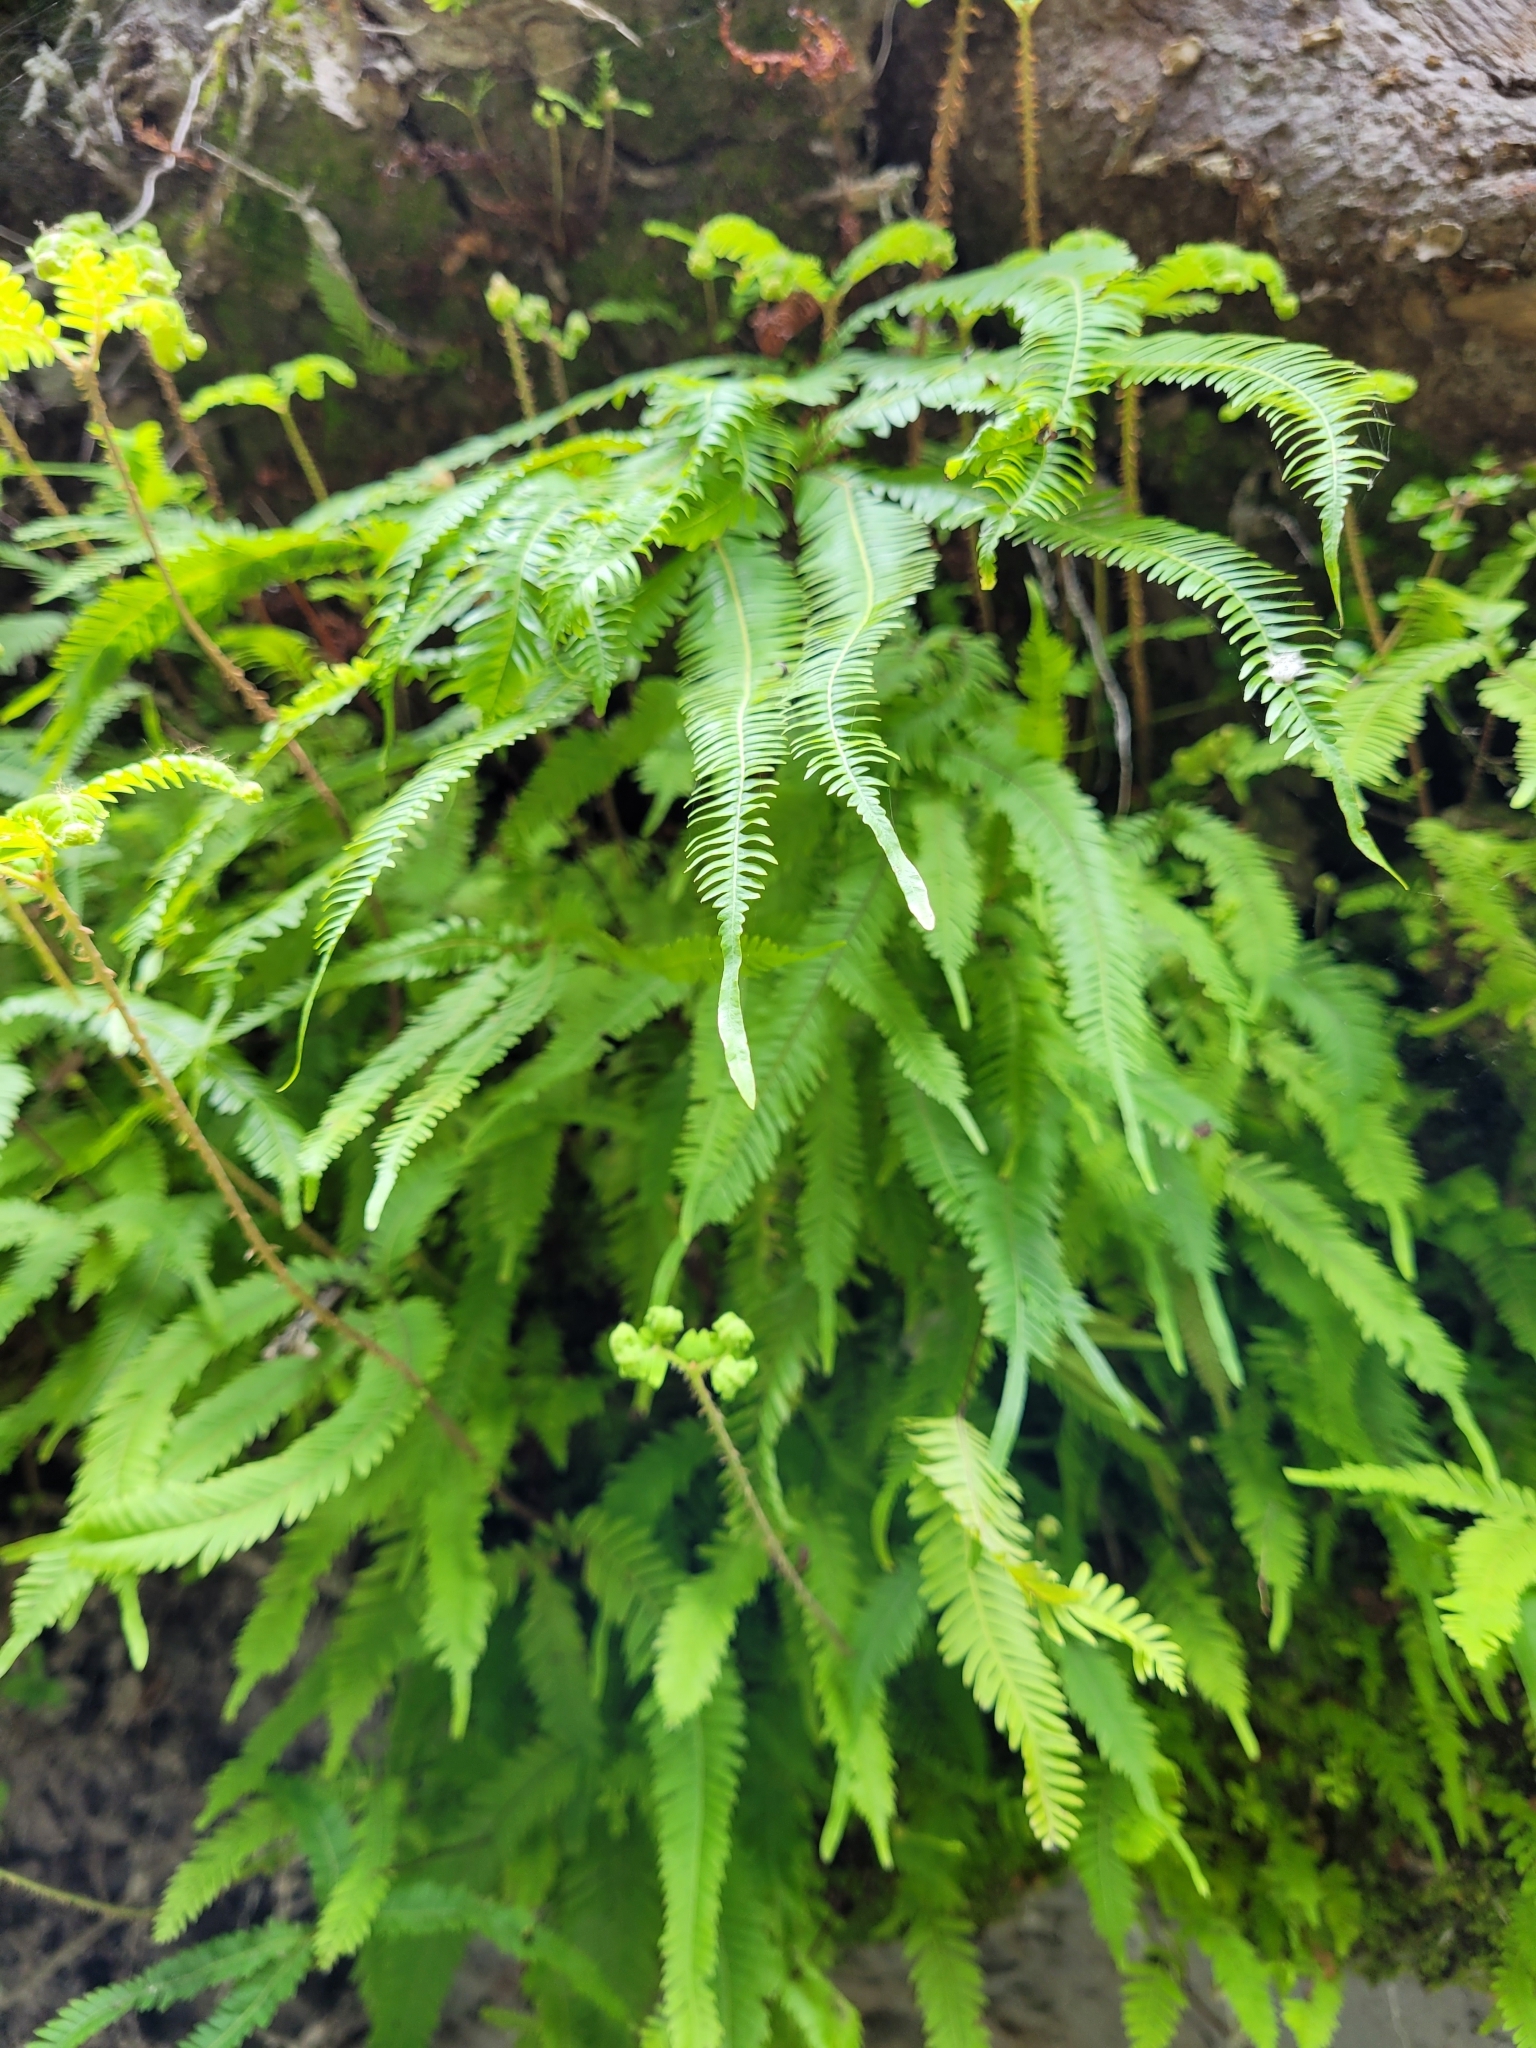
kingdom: Plantae
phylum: Tracheophyta
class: Polypodiopsida
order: Gleicheniales
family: Gleicheniaceae
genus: Sticherus
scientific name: Sticherus cunninghamii
